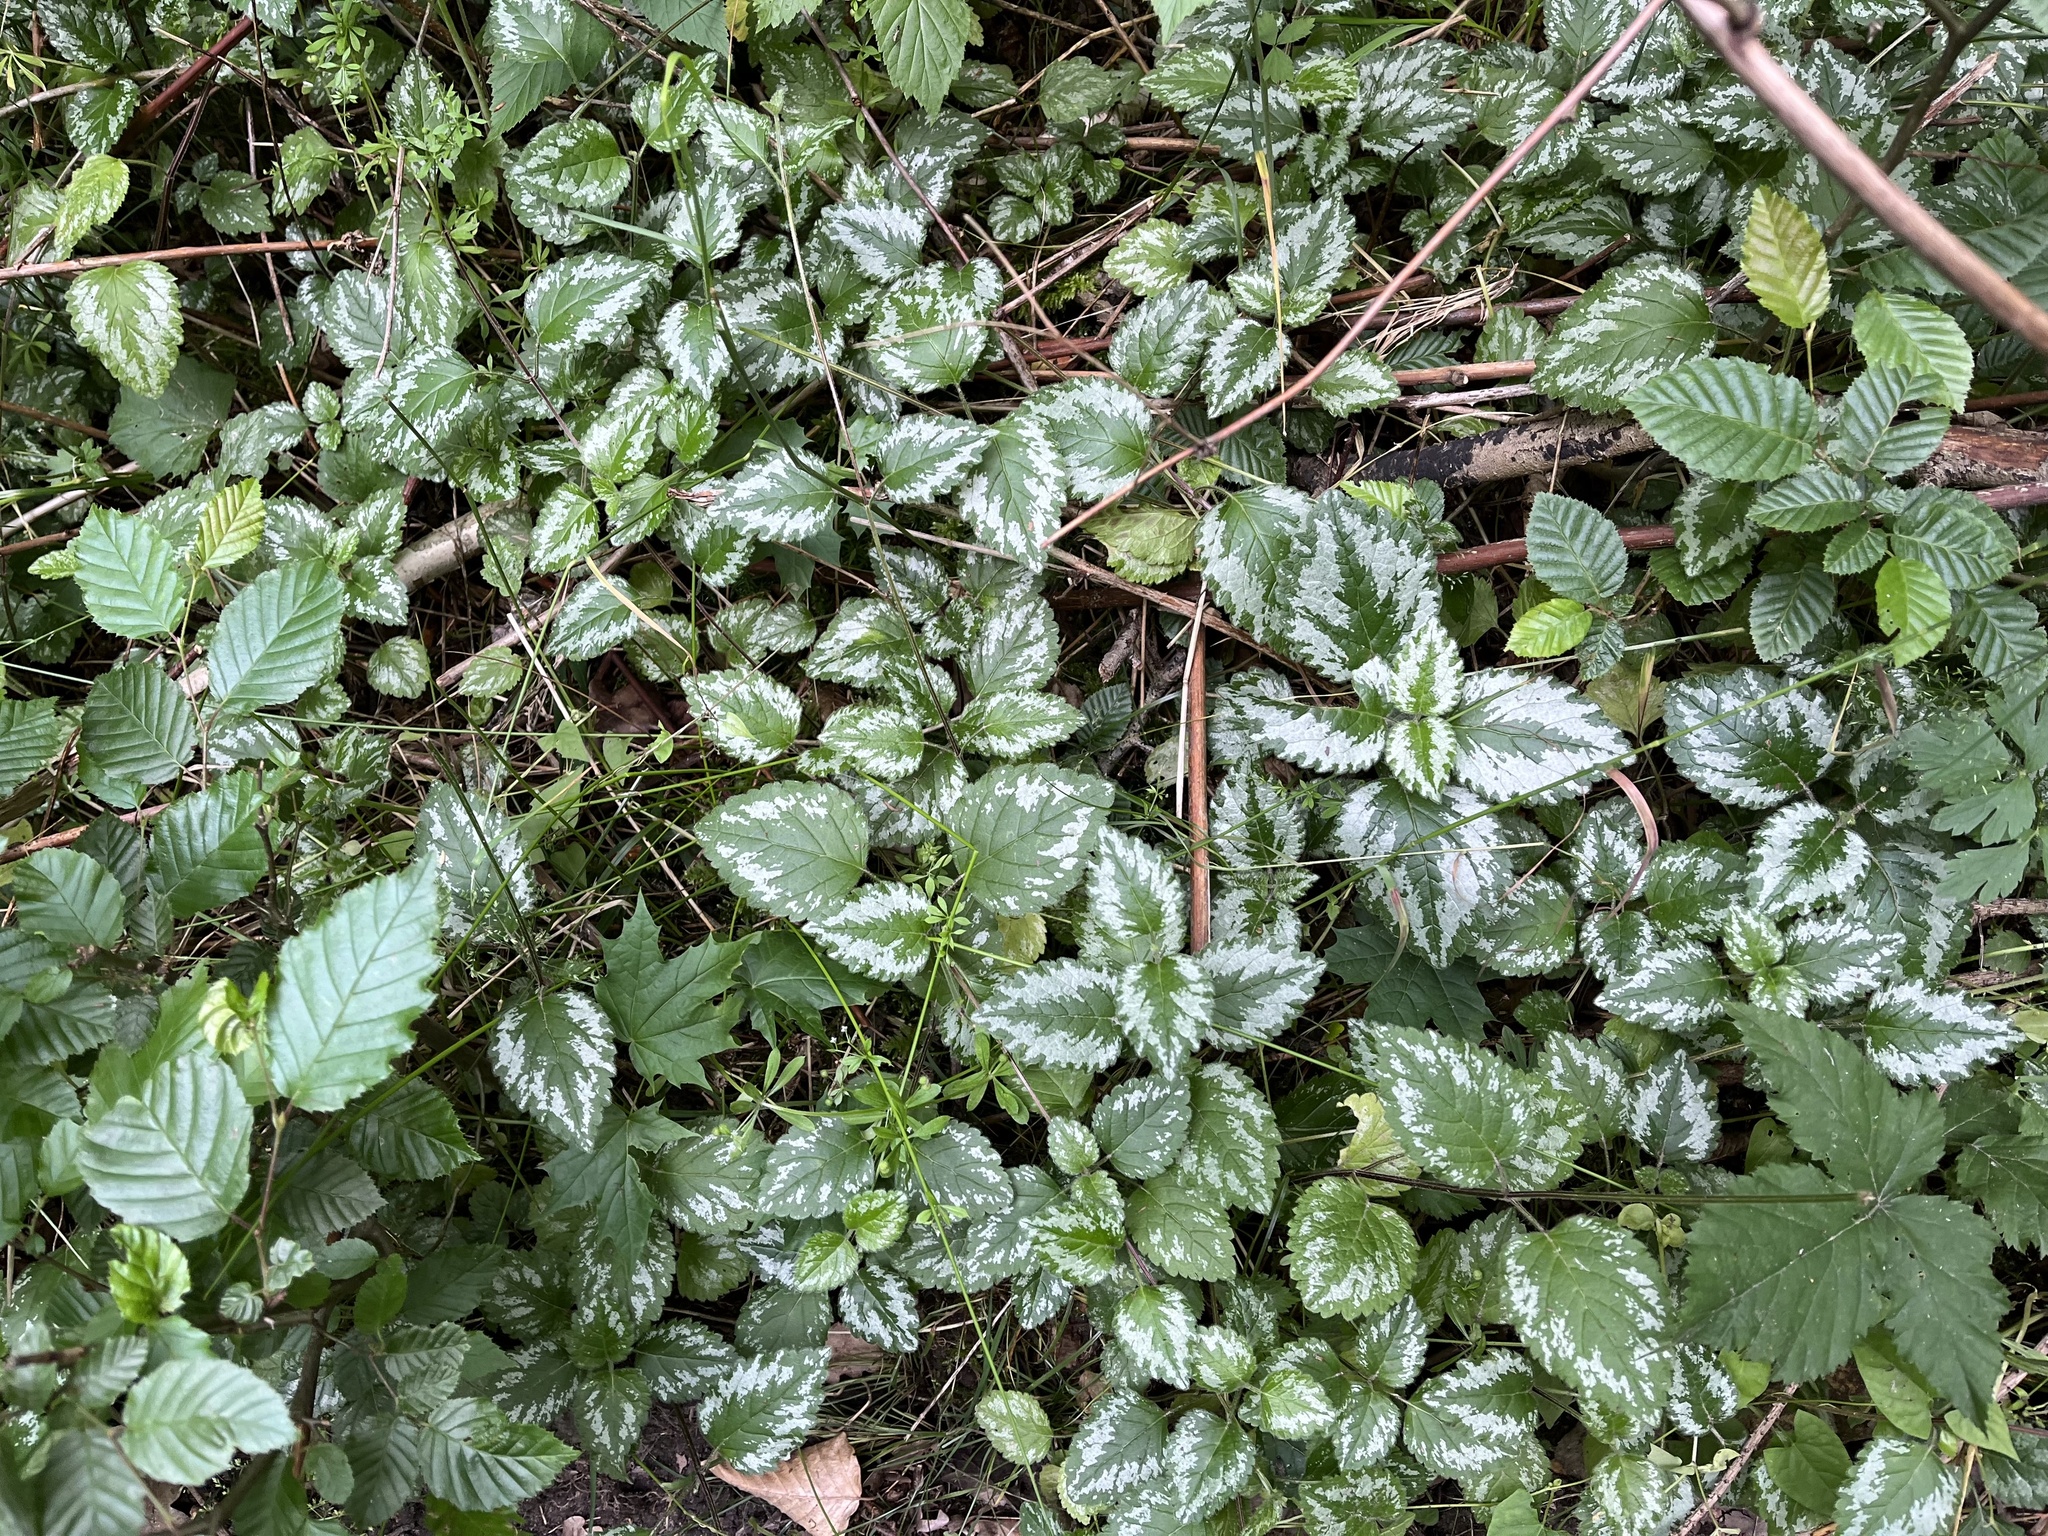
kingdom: Plantae
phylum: Tracheophyta
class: Magnoliopsida
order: Lamiales
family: Lamiaceae
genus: Lamium
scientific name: Lamium galeobdolon
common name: Yellow archangel
